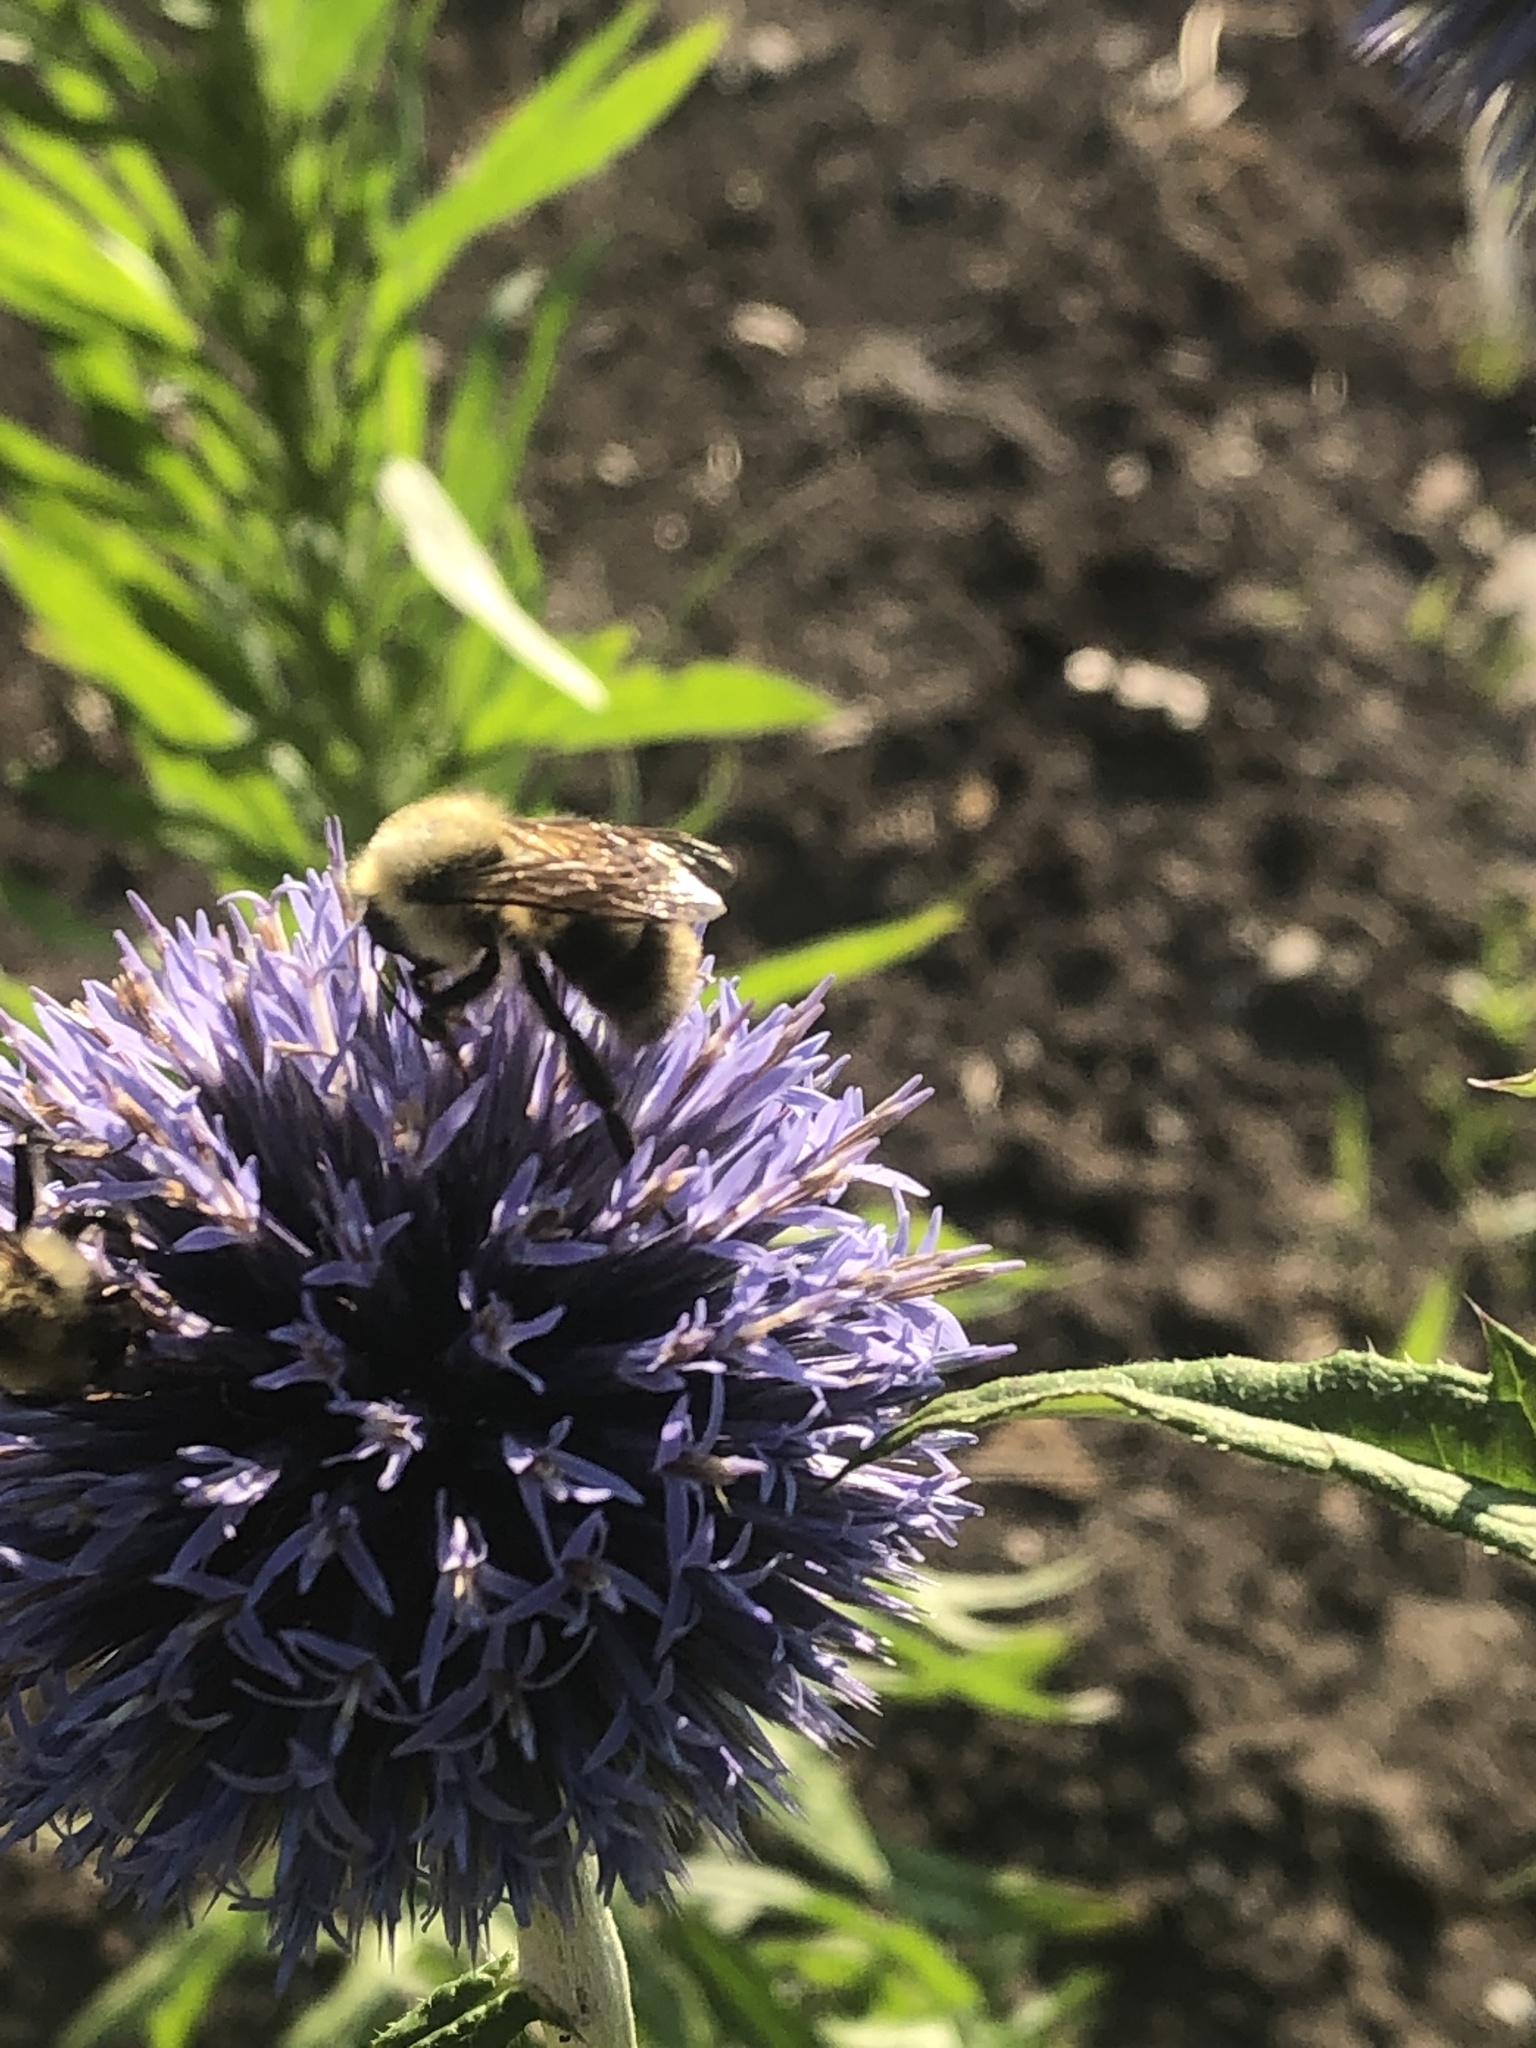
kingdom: Animalia
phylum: Arthropoda
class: Insecta
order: Hymenoptera
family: Apidae
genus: Bombus
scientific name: Bombus bimaculatus
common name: Two-spotted bumble bee
